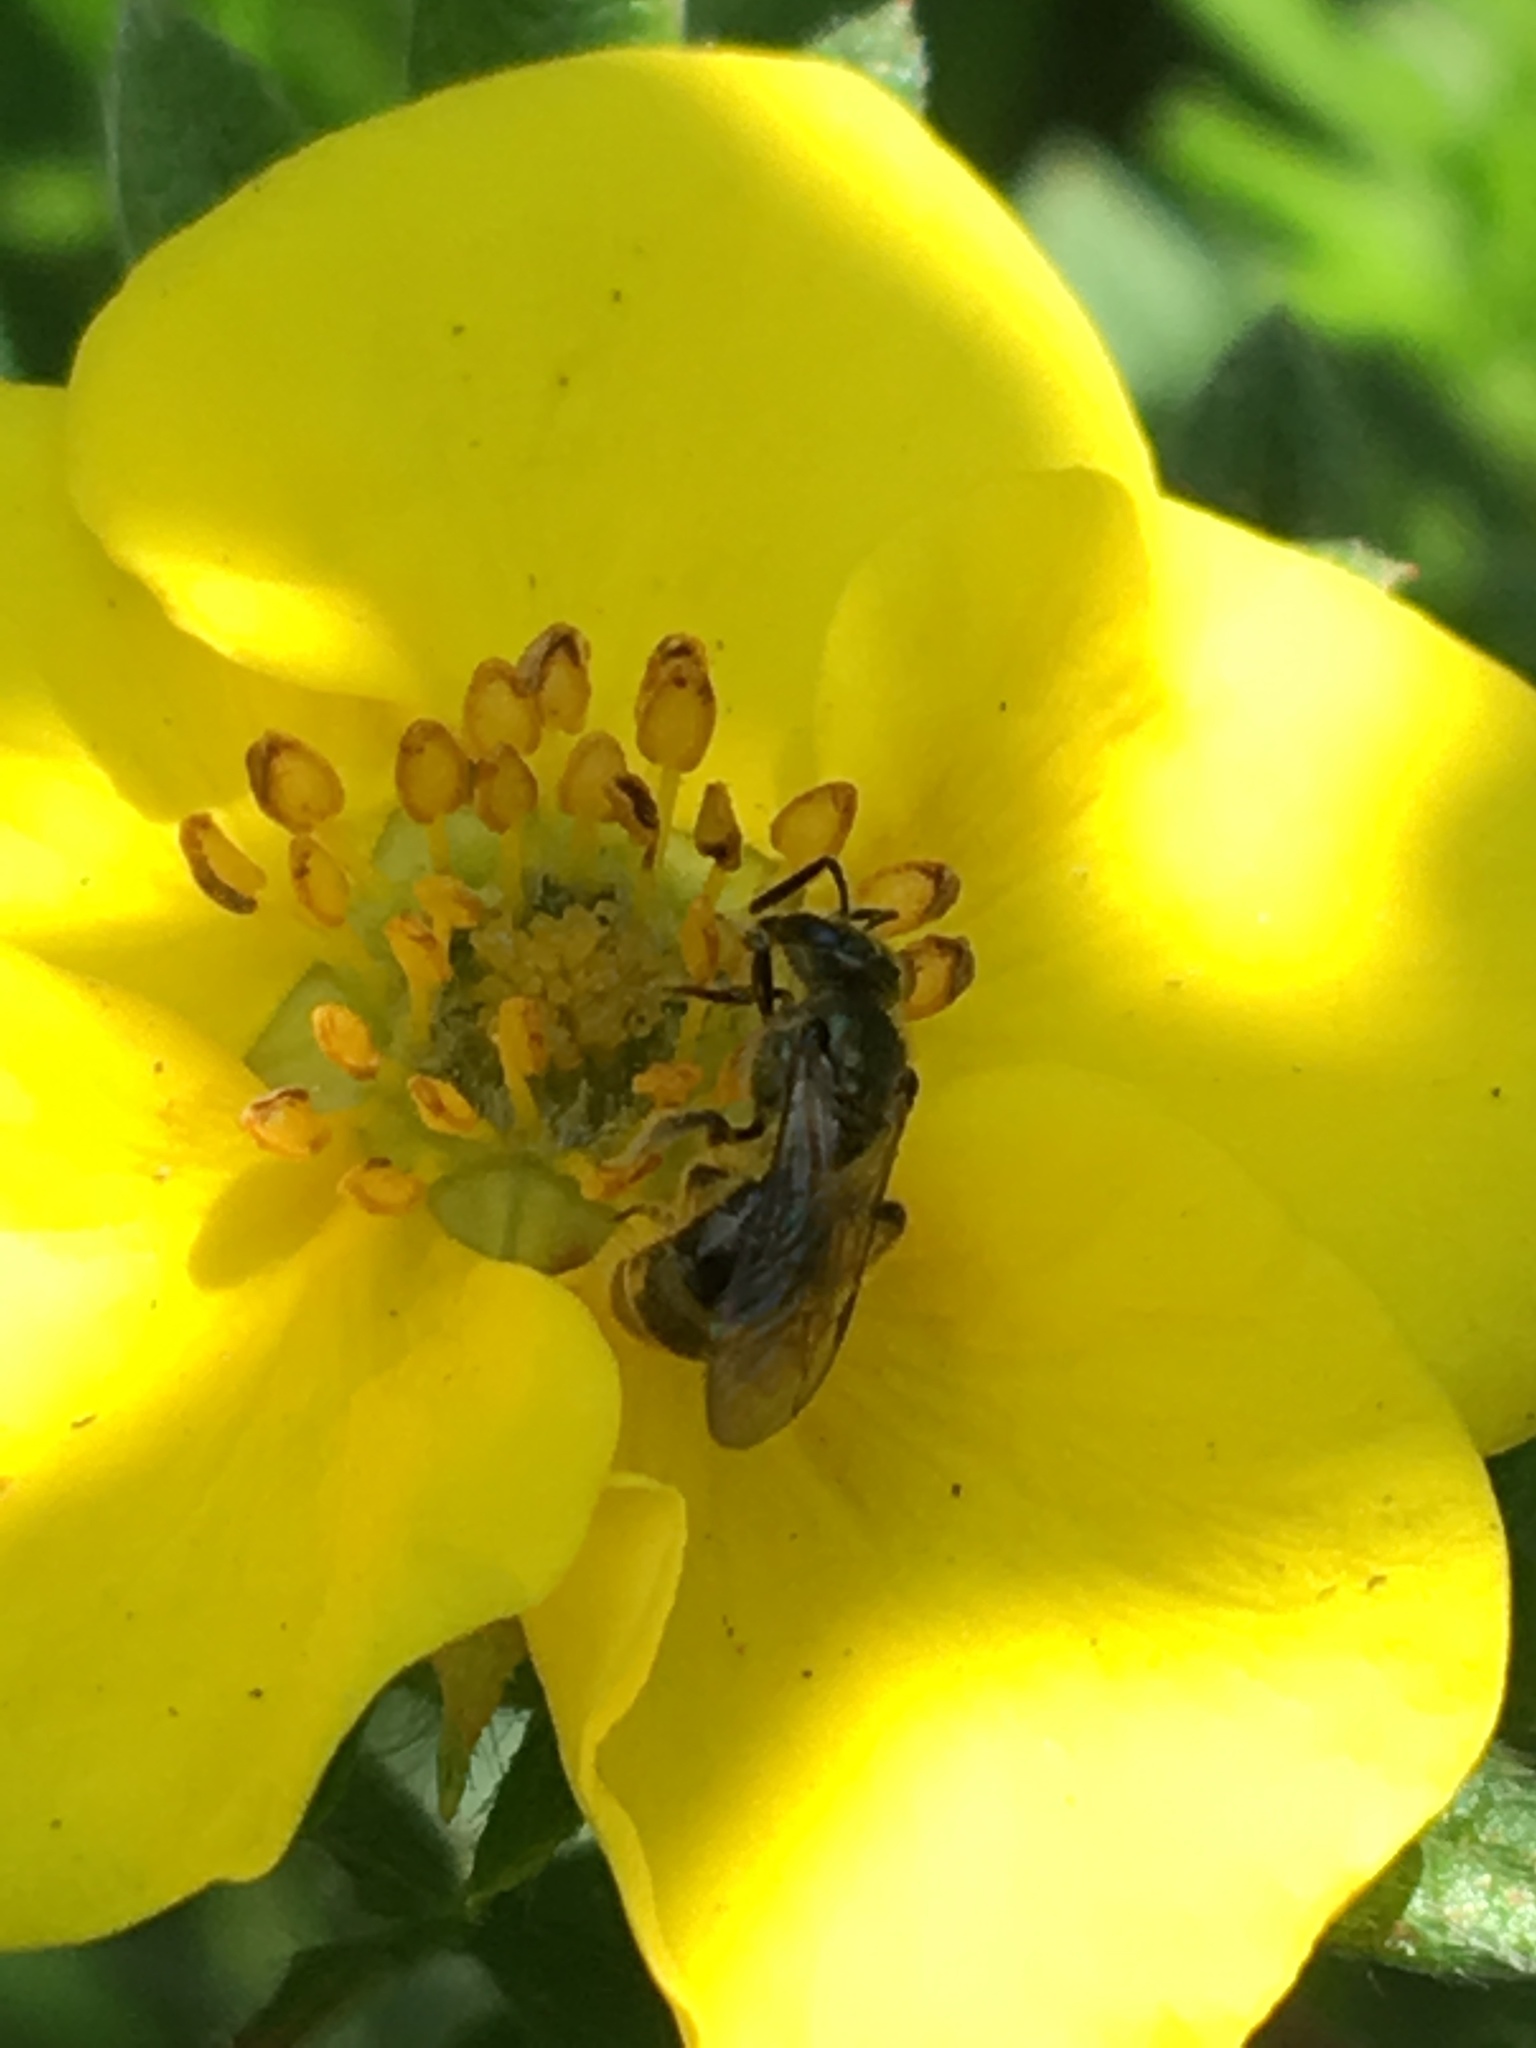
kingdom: Animalia
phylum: Arthropoda
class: Insecta
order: Hymenoptera
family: Halictidae
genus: Dialictus
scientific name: Dialictus
